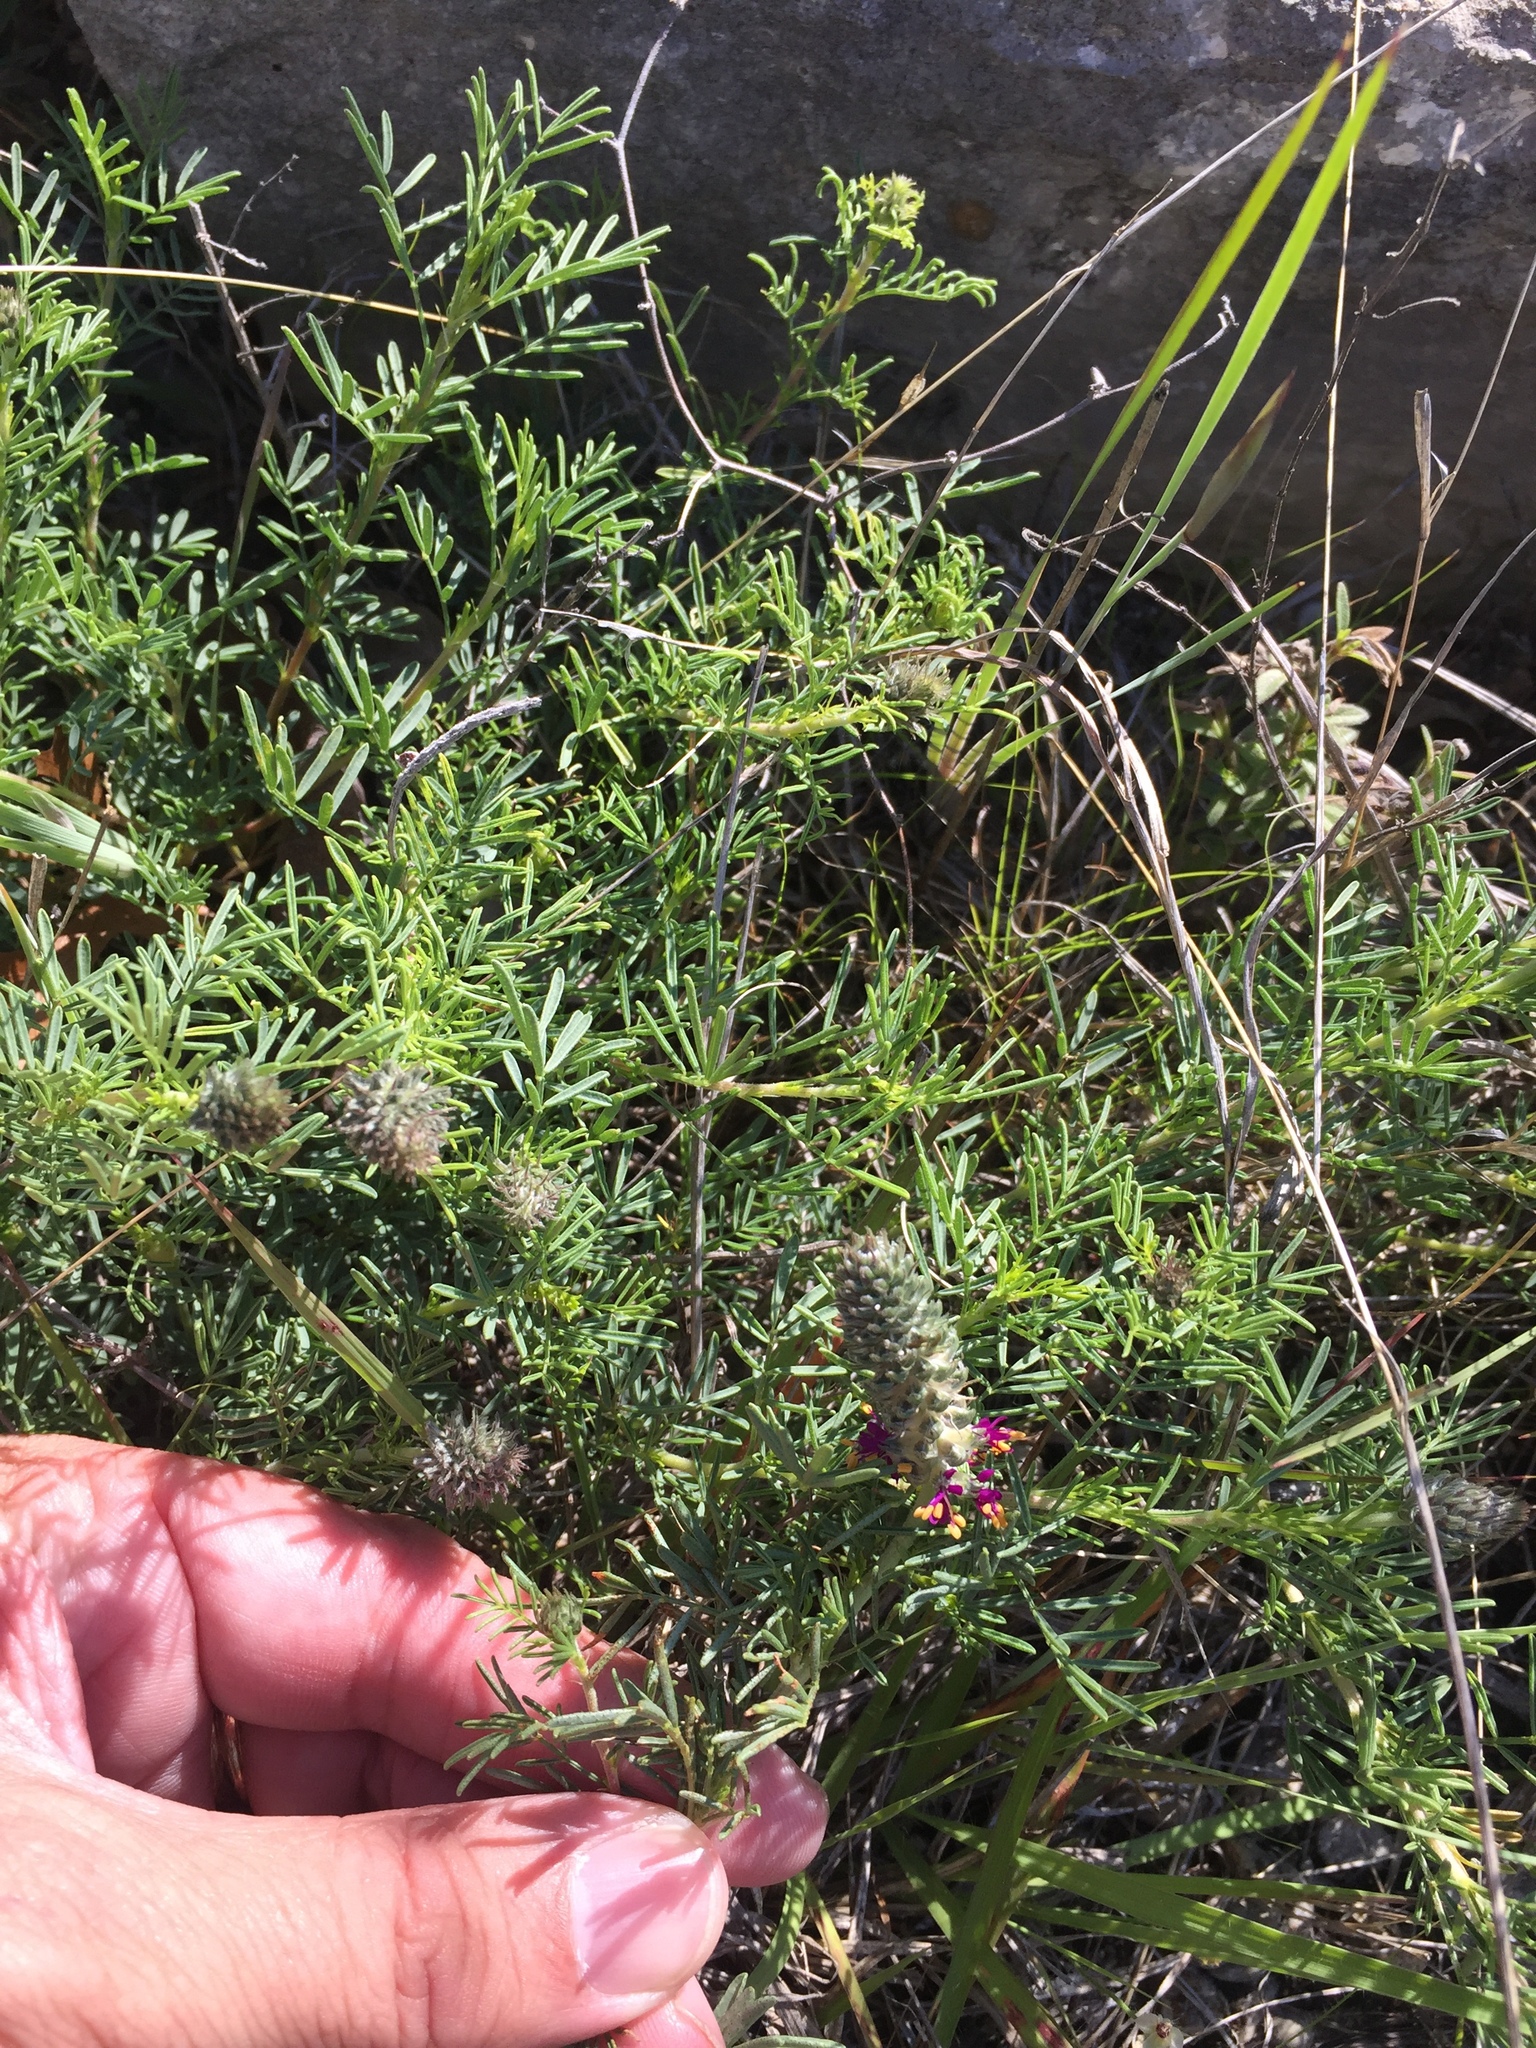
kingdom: Plantae
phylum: Tracheophyta
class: Magnoliopsida
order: Fabales
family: Fabaceae
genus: Dalea
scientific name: Dalea reverchonii
